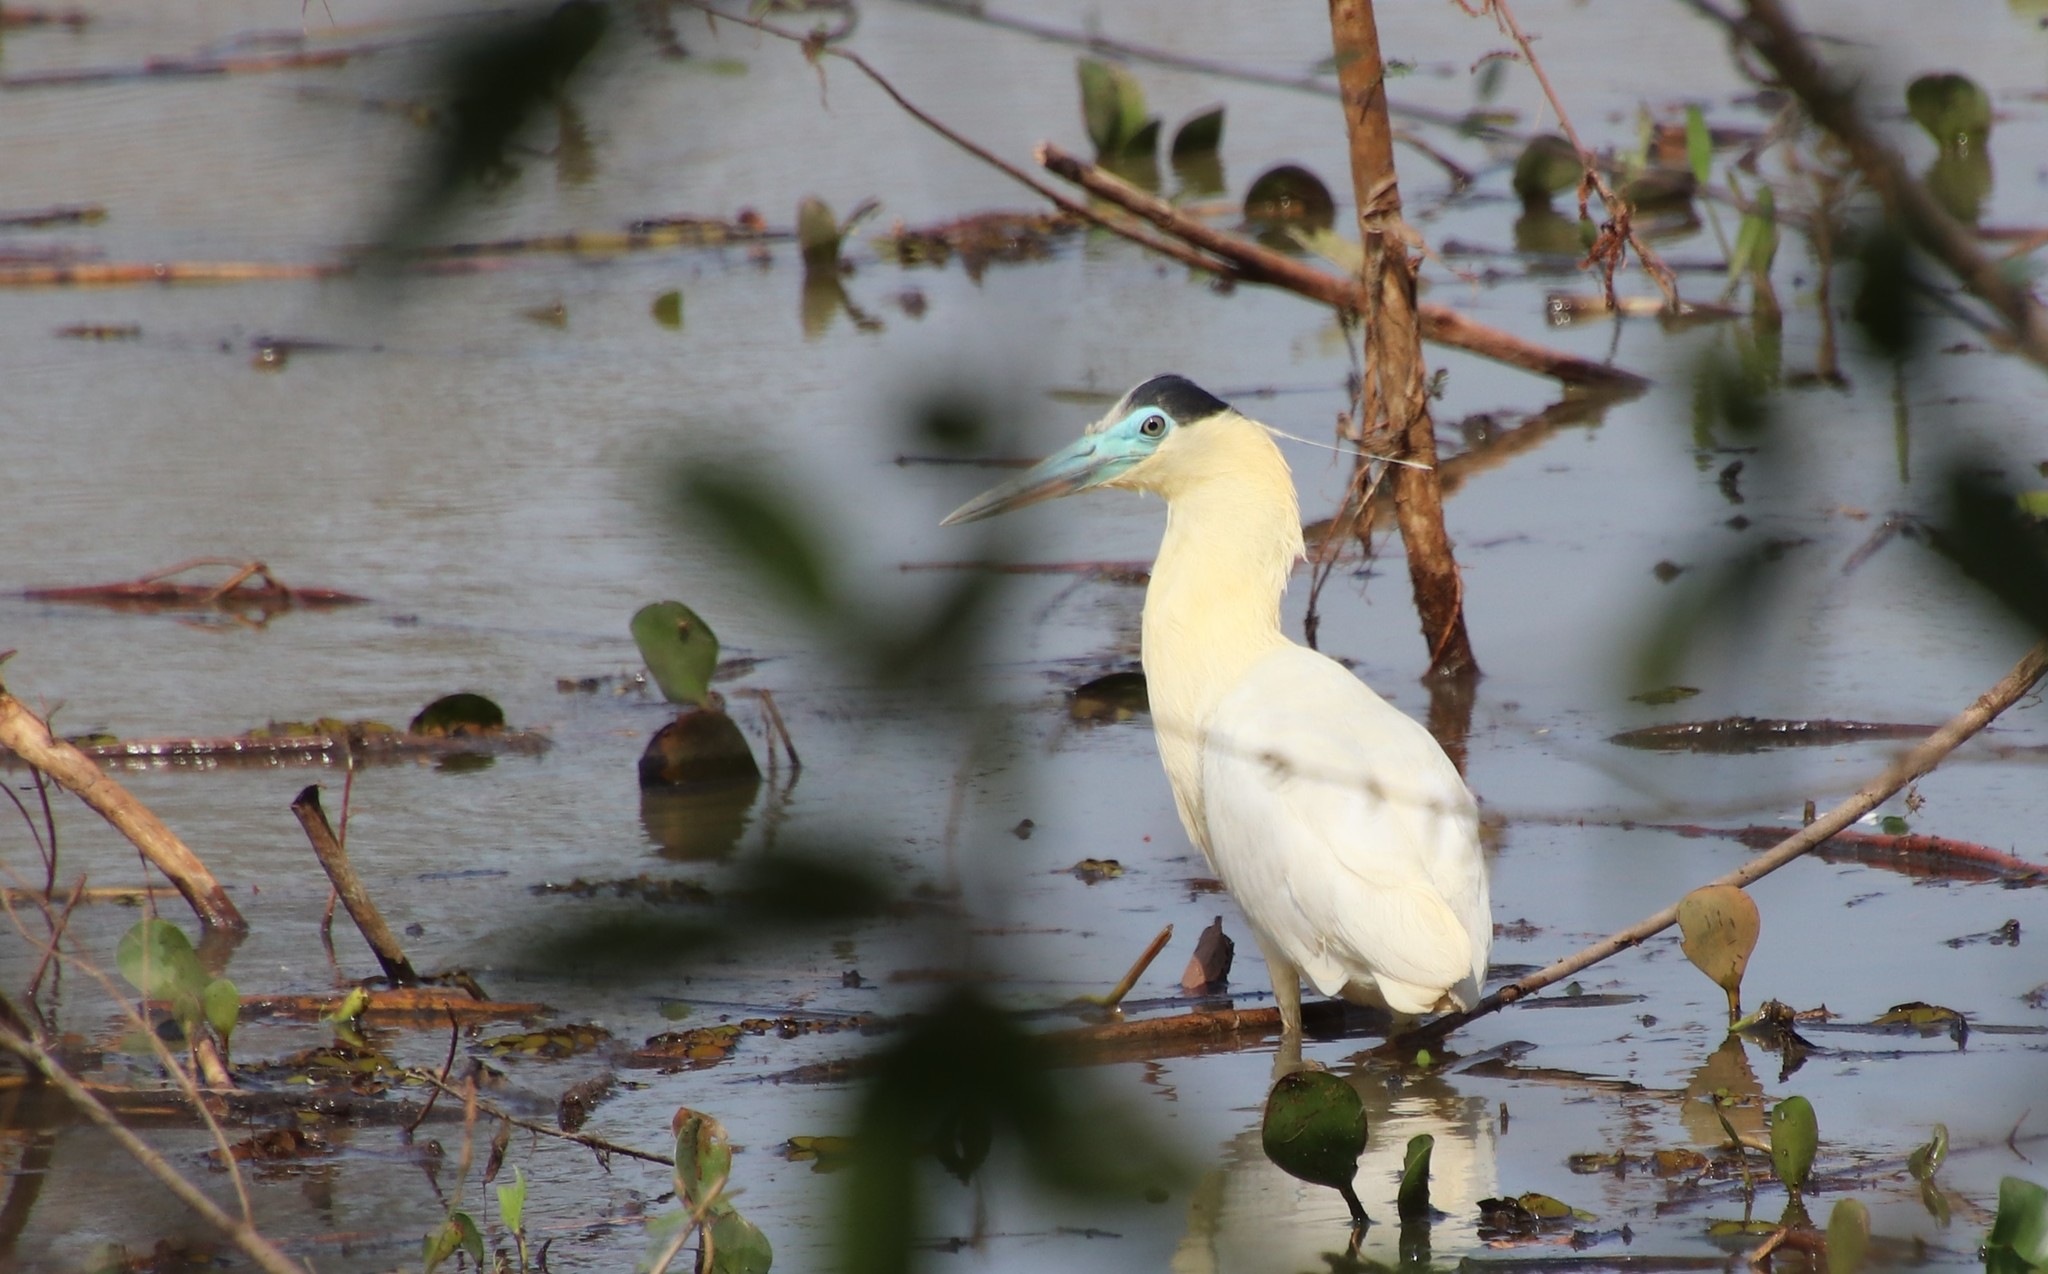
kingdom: Animalia
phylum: Chordata
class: Aves
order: Pelecaniformes
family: Ardeidae
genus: Pilherodius
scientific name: Pilherodius pileatus
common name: Capped heron
